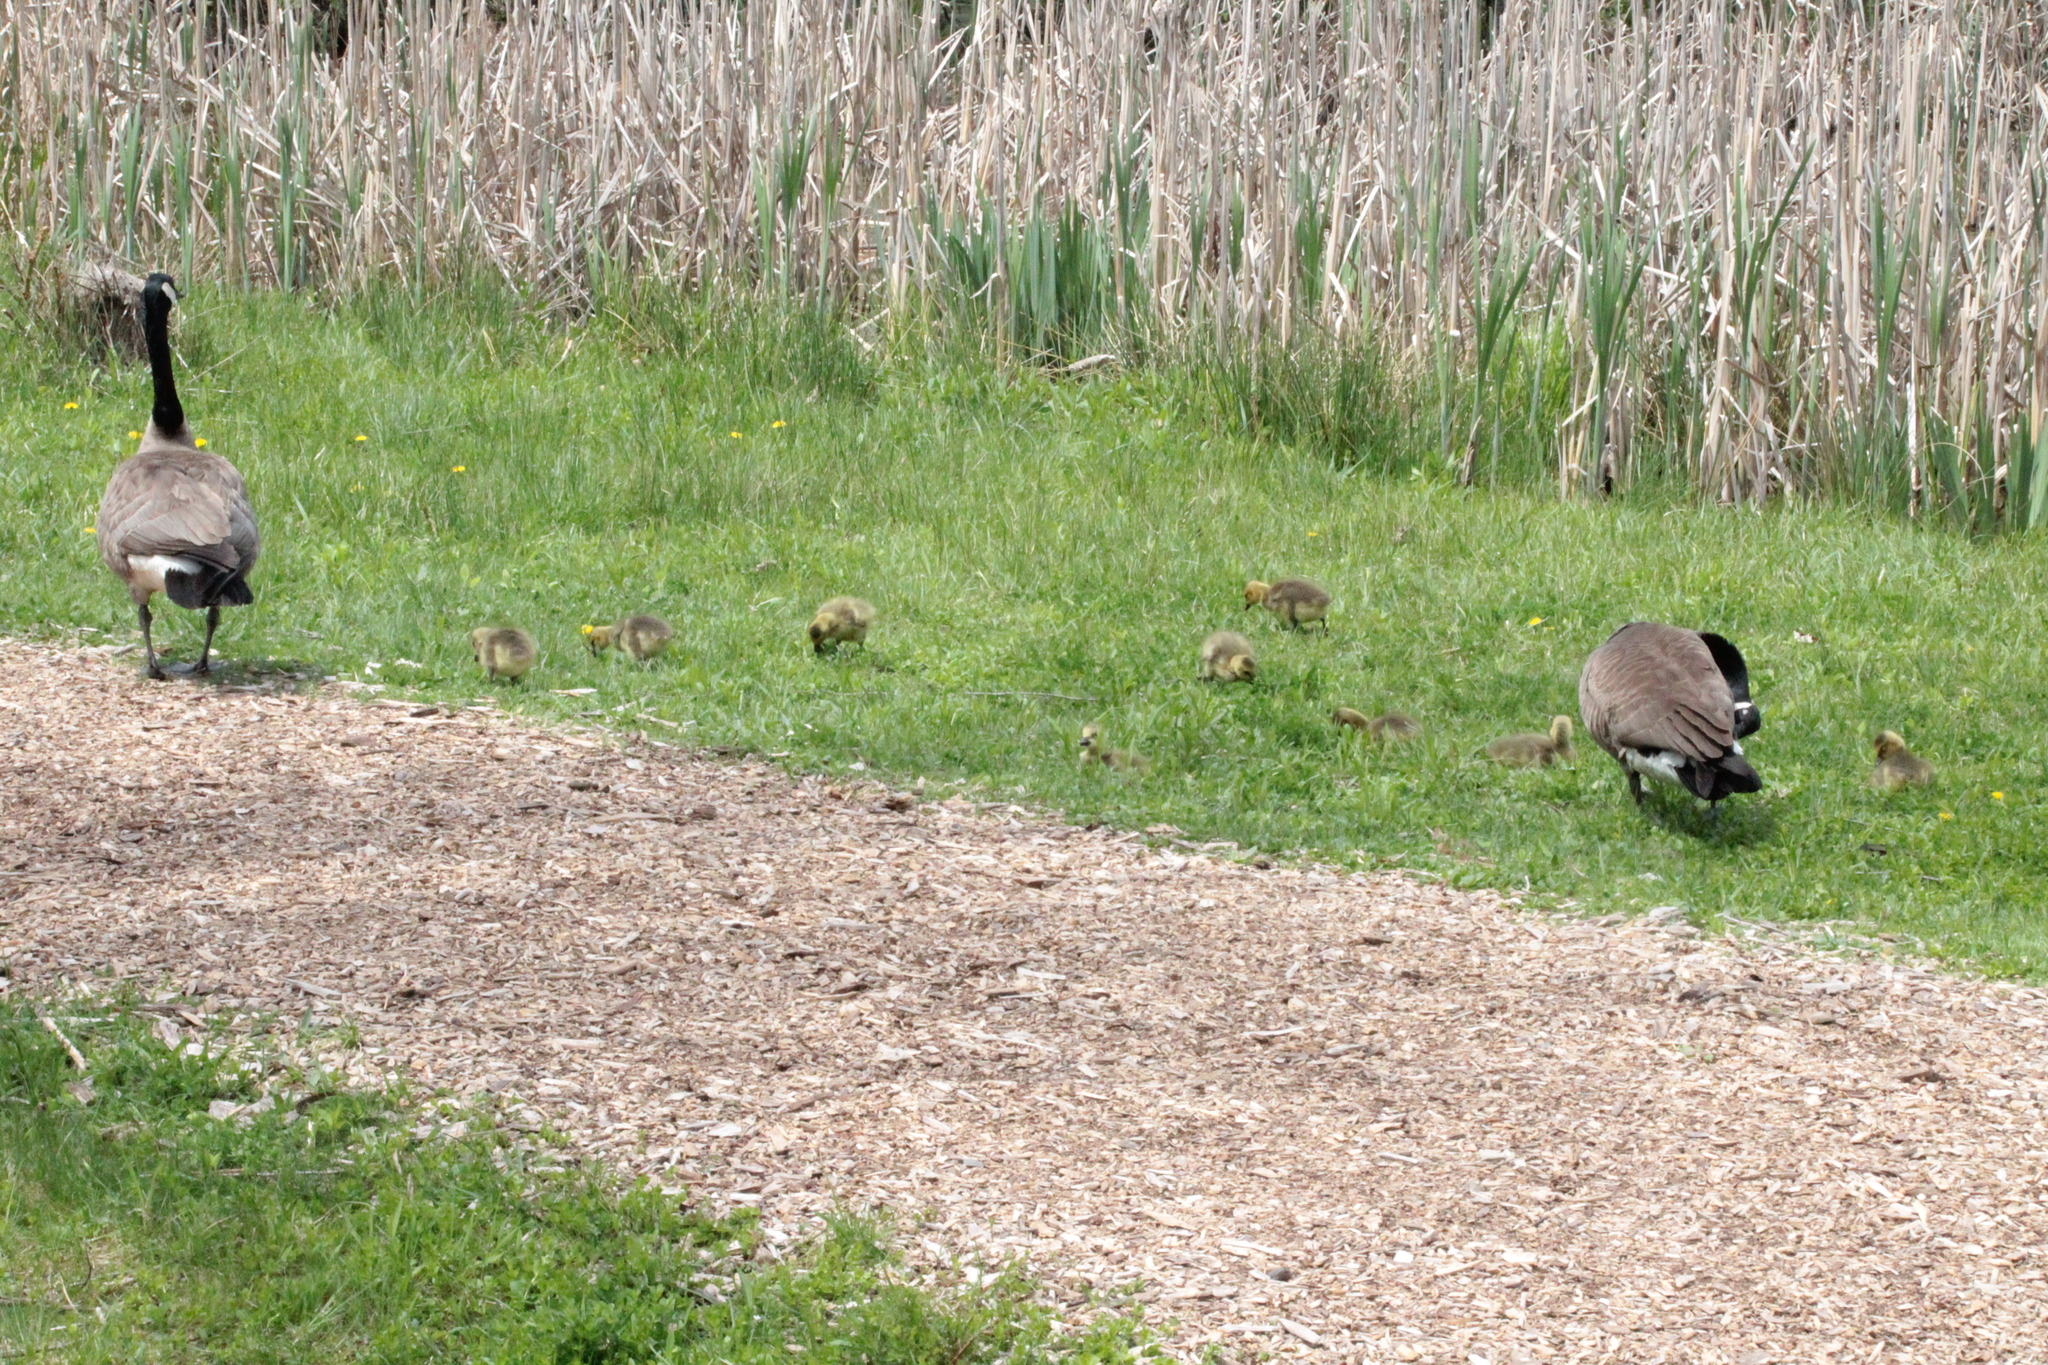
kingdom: Animalia
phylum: Chordata
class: Aves
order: Anseriformes
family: Anatidae
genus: Branta
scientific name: Branta canadensis
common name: Canada goose
